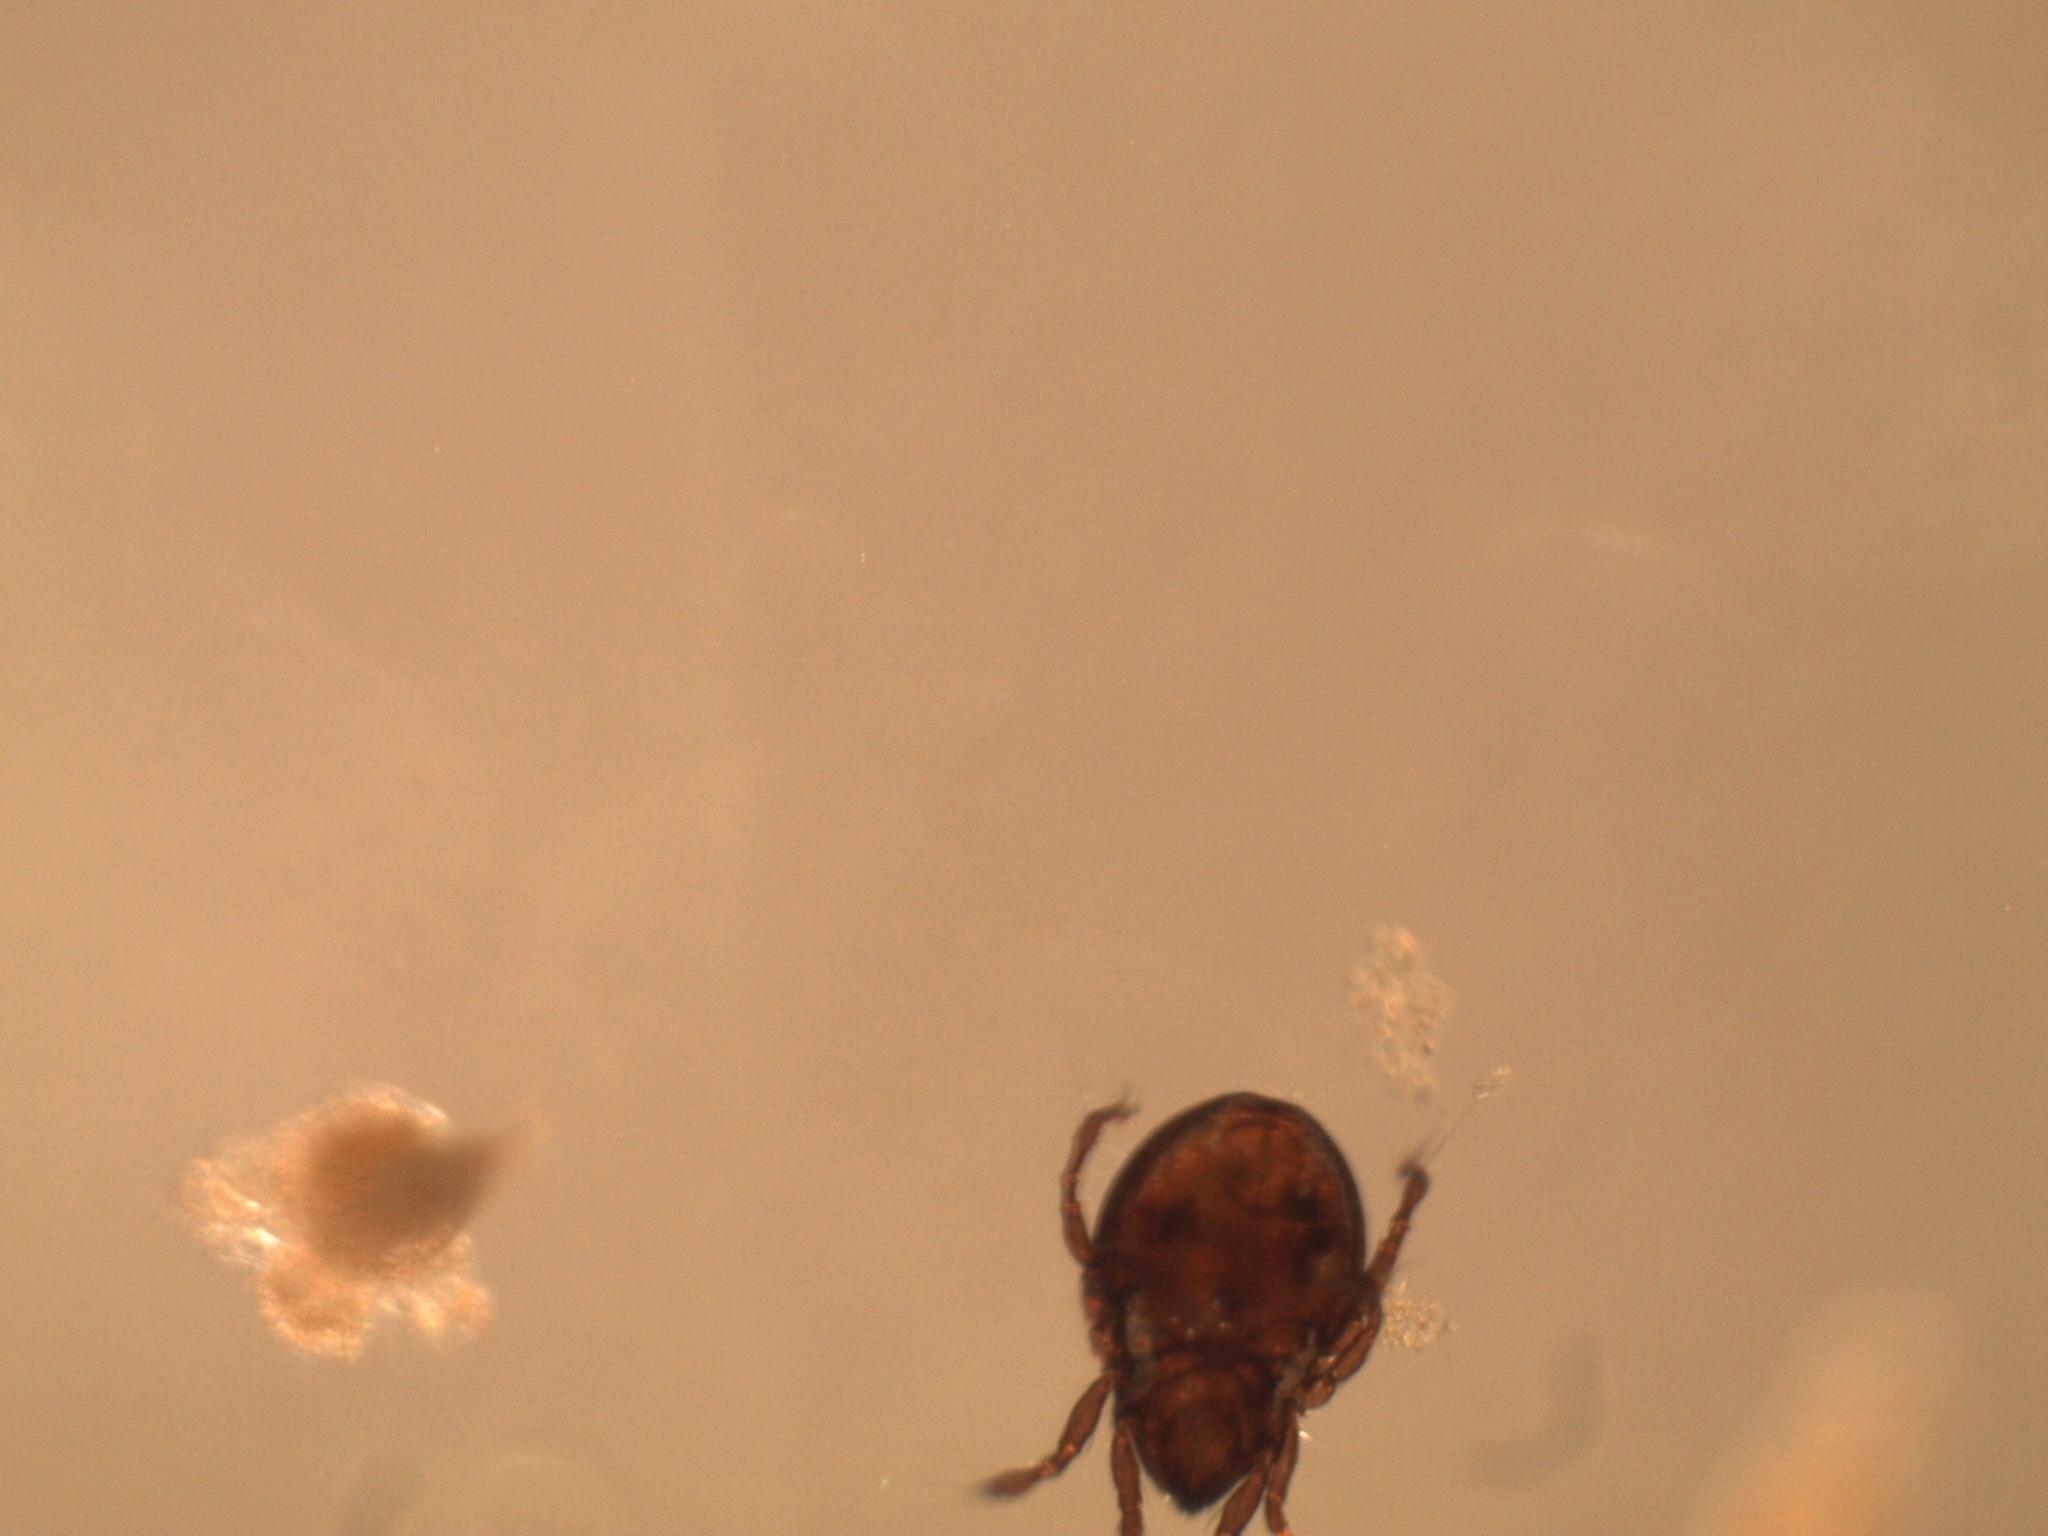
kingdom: Animalia
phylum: Arthropoda
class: Arachnida
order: Sarcoptiformes
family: Hydrozetidae
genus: Hydrozetes
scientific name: Hydrozetes
